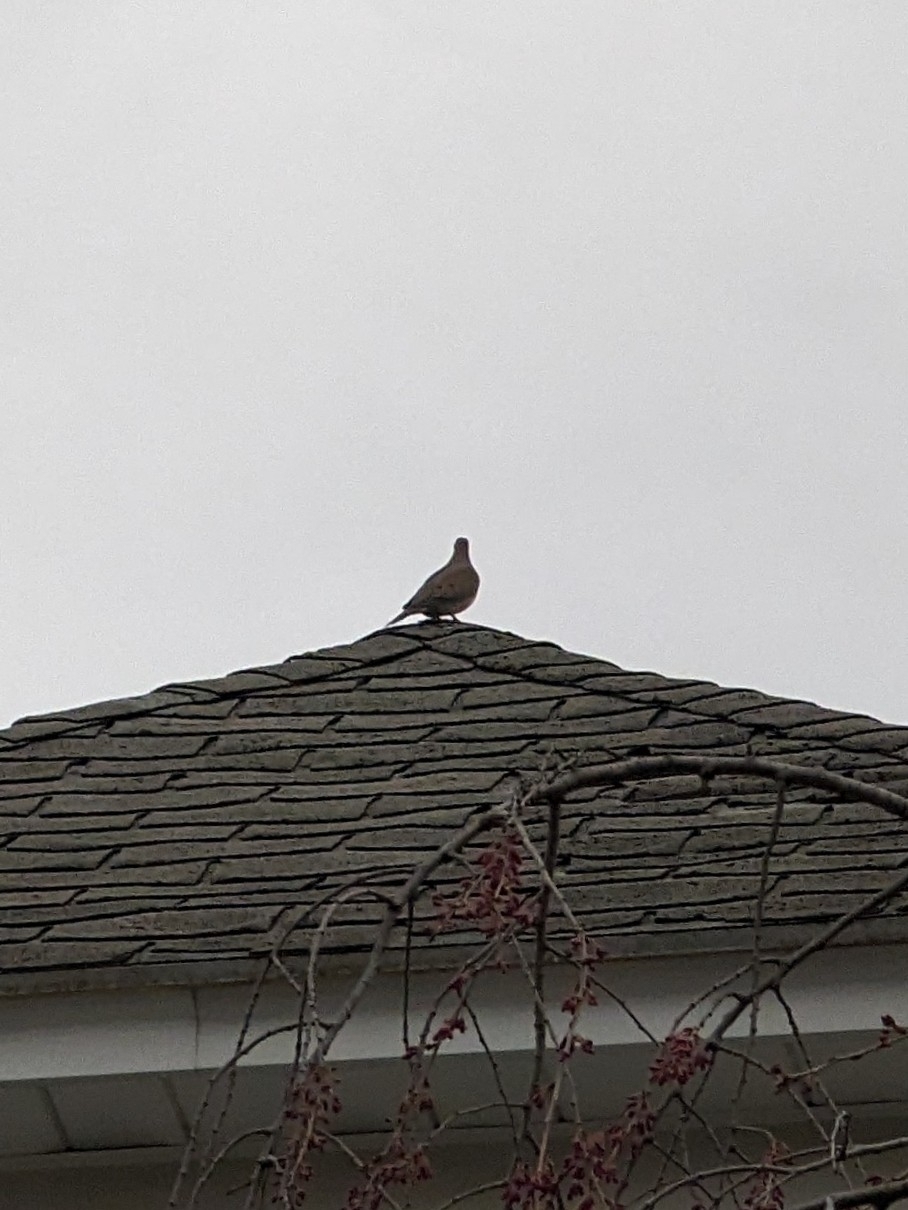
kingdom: Animalia
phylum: Chordata
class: Aves
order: Columbiformes
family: Columbidae
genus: Zenaida
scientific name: Zenaida macroura
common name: Mourning dove
